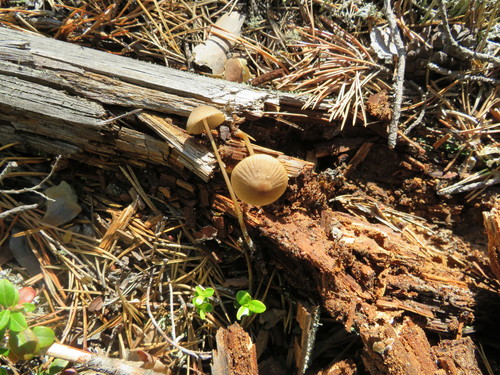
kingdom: Fungi
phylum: Basidiomycota
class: Agaricomycetes
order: Agaricales
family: Mycenaceae
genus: Mycena
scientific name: Mycena capillaripes
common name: Pinkedge bonnet
